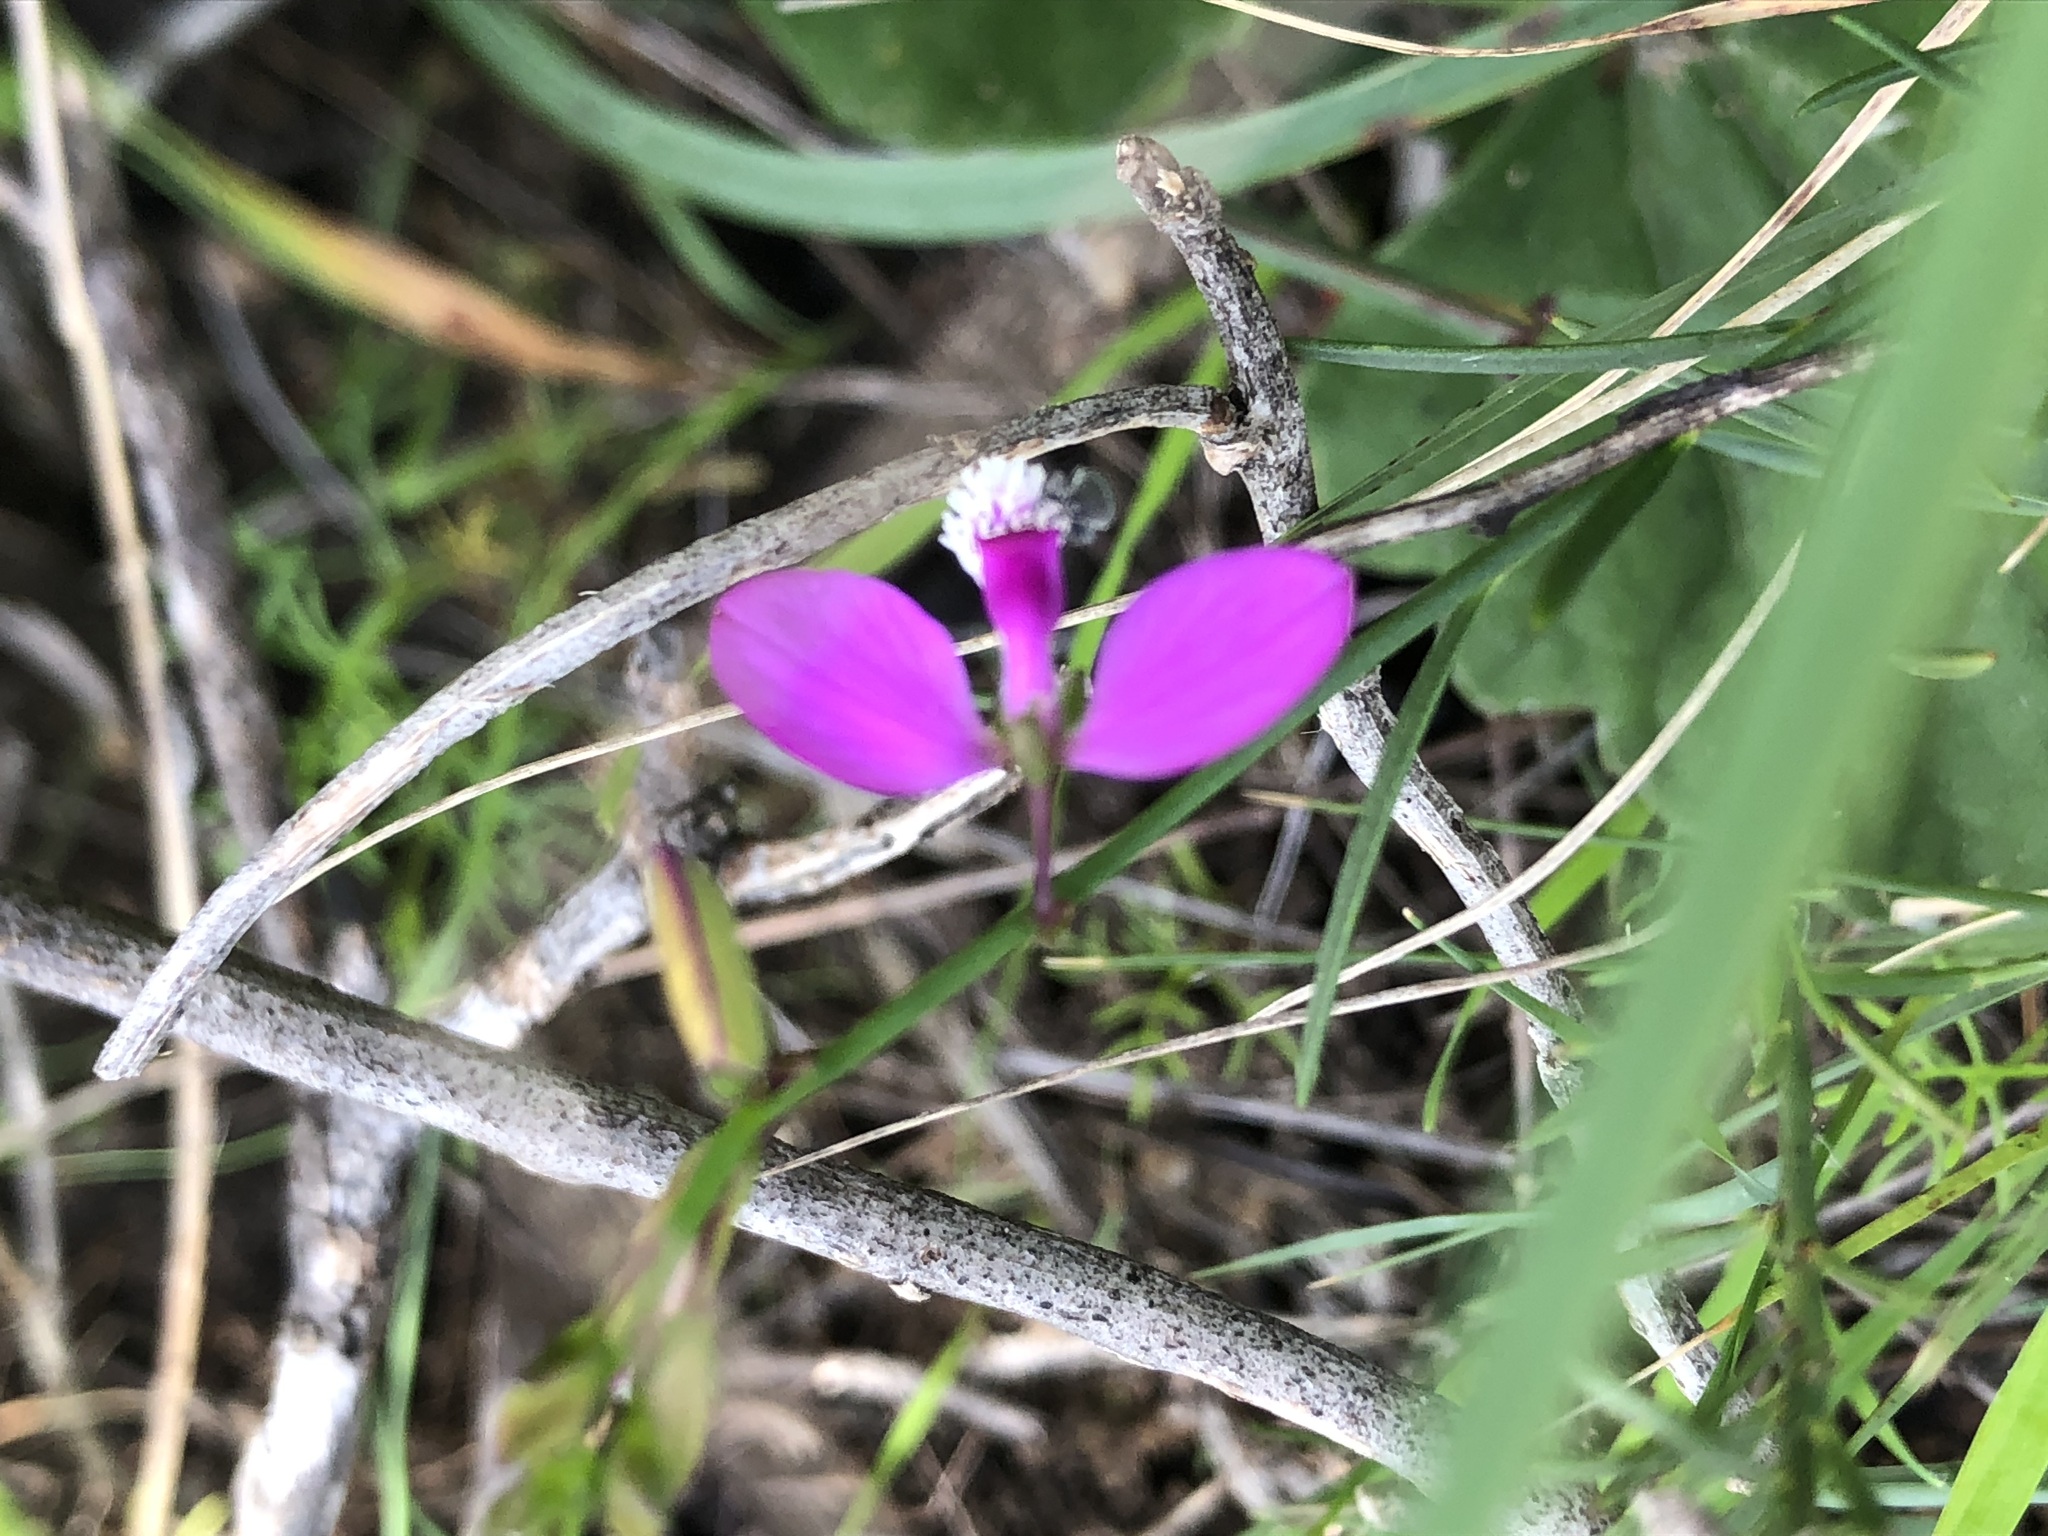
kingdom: Plantae
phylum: Tracheophyta
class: Magnoliopsida
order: Fabales
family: Polygalaceae
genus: Polygala
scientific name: Polygala garcini
